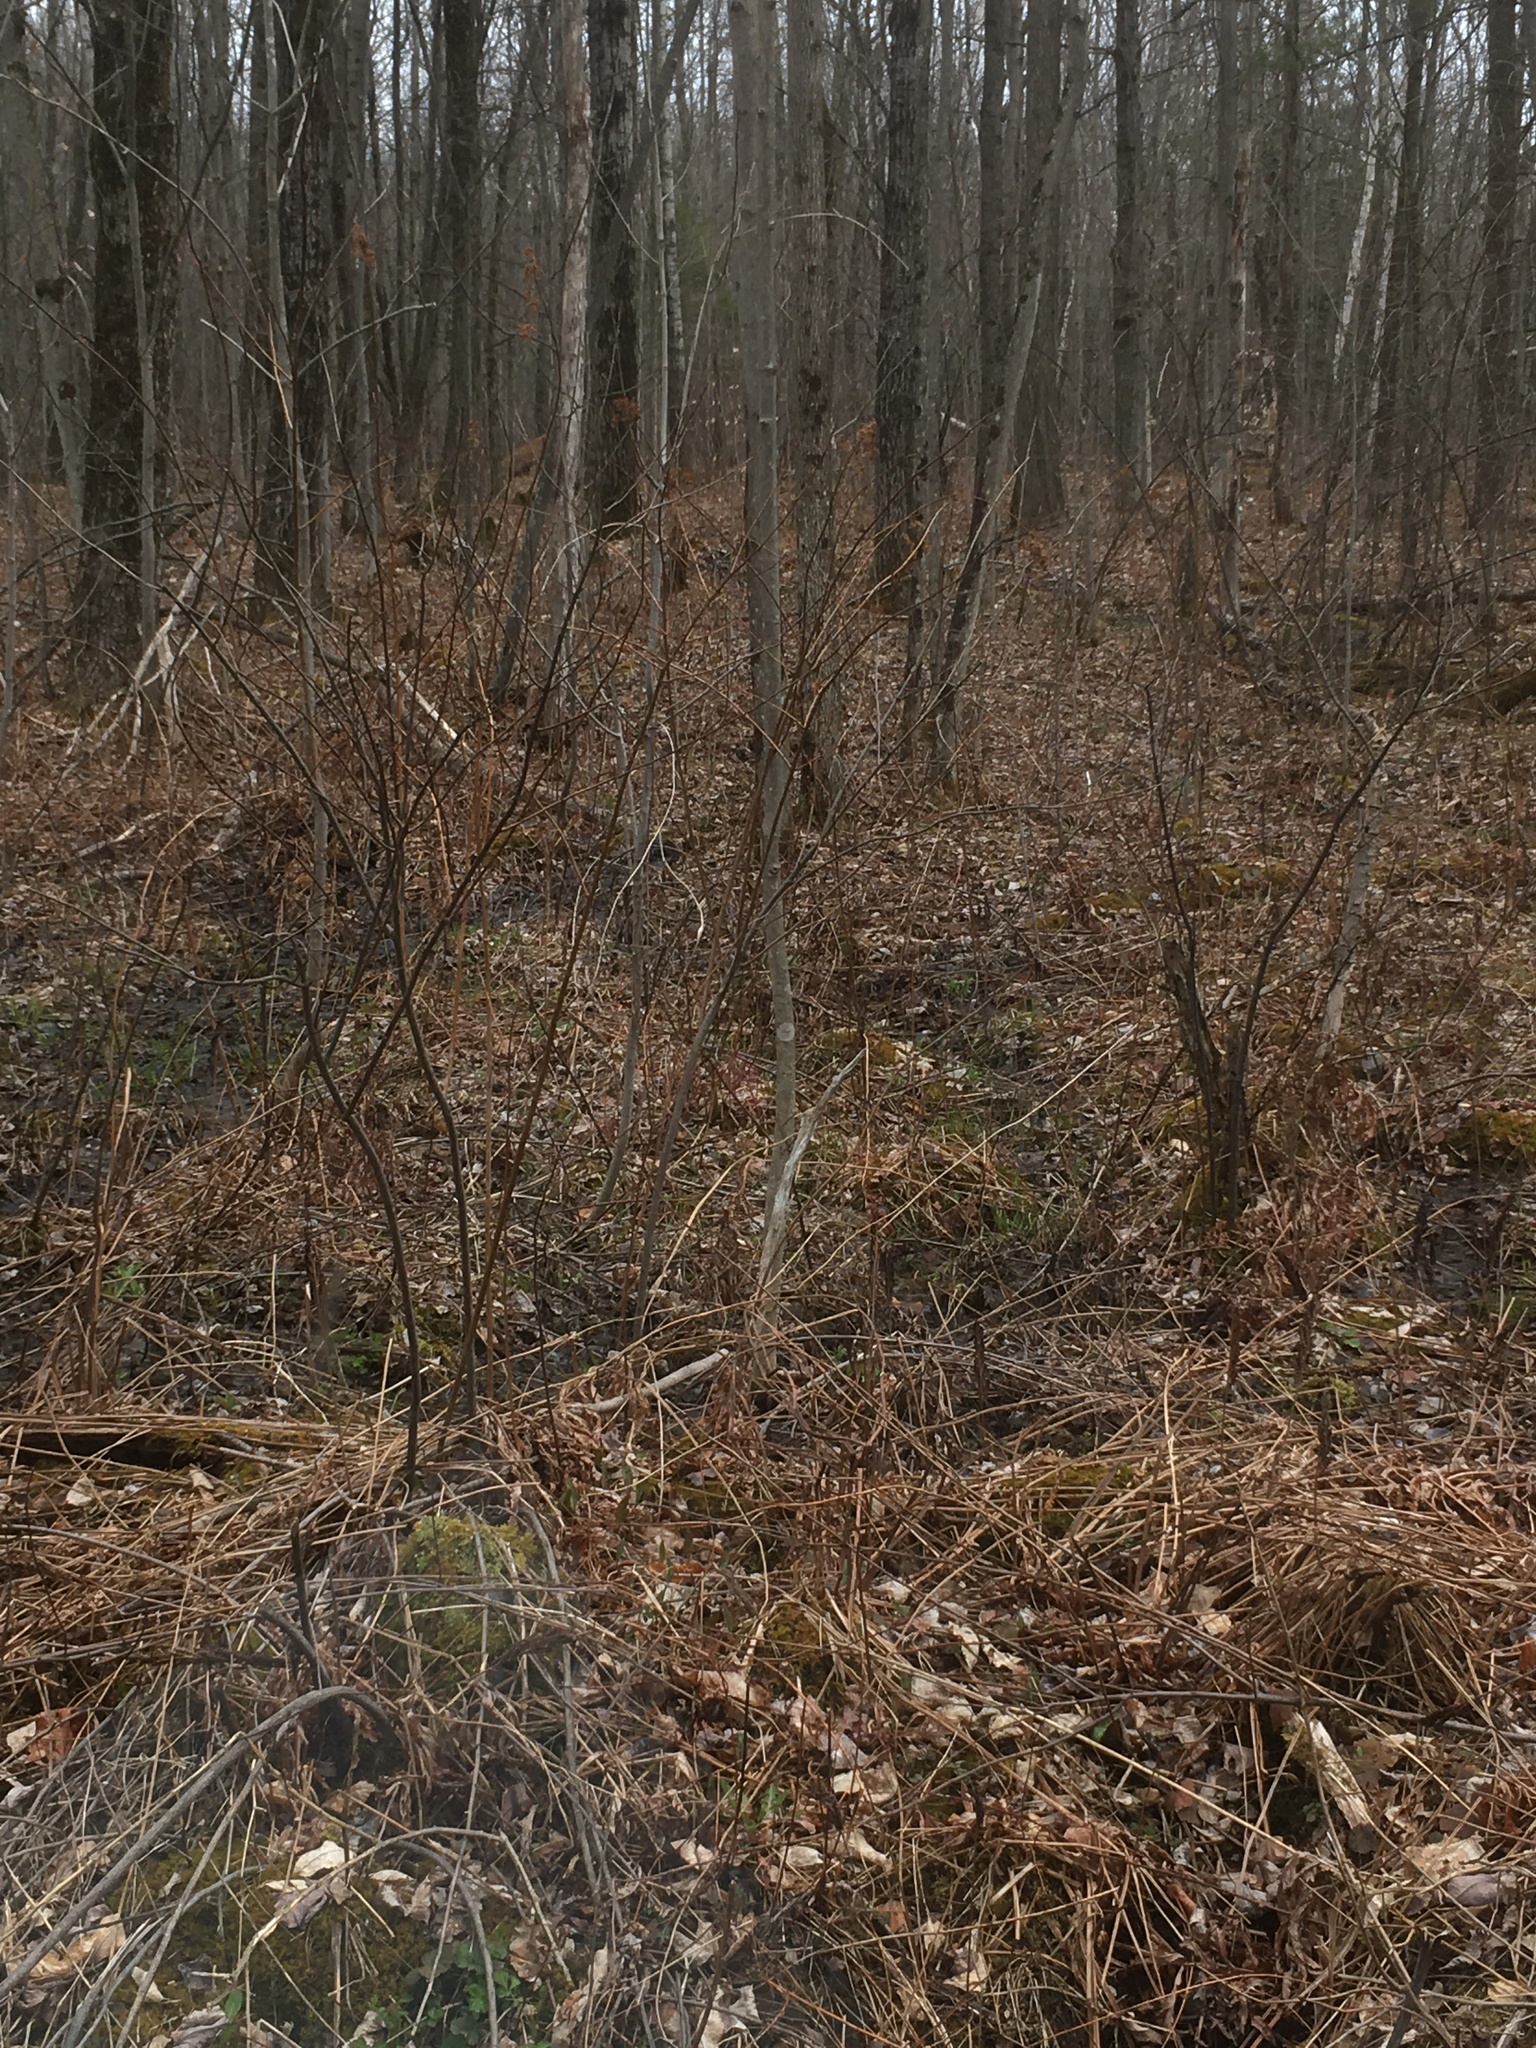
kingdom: Plantae
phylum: Tracheophyta
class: Magnoliopsida
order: Rosales
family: Rosaceae
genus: Spiraea
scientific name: Spiraea alba
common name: Pale bridewort
